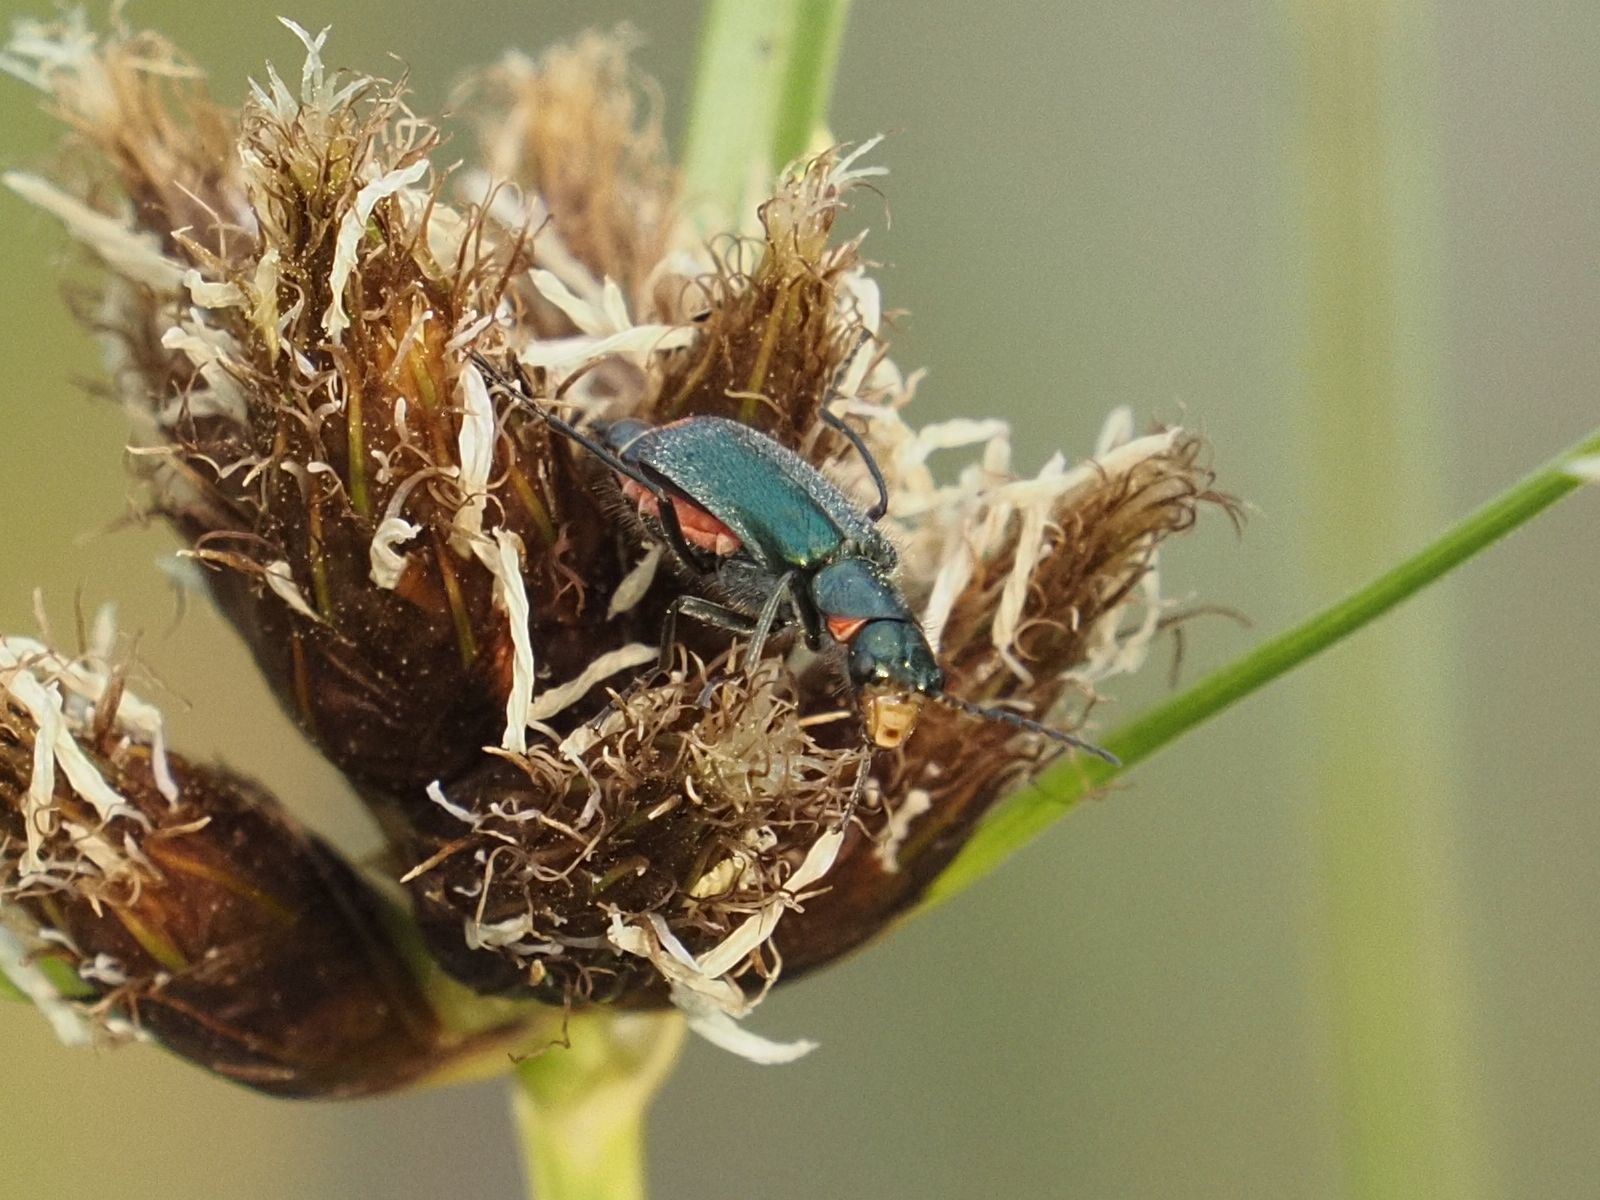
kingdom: Animalia
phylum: Arthropoda
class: Insecta
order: Coleoptera
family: Melyridae
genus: Malachius
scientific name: Malachius bipustulatus
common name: Malachite beetle
